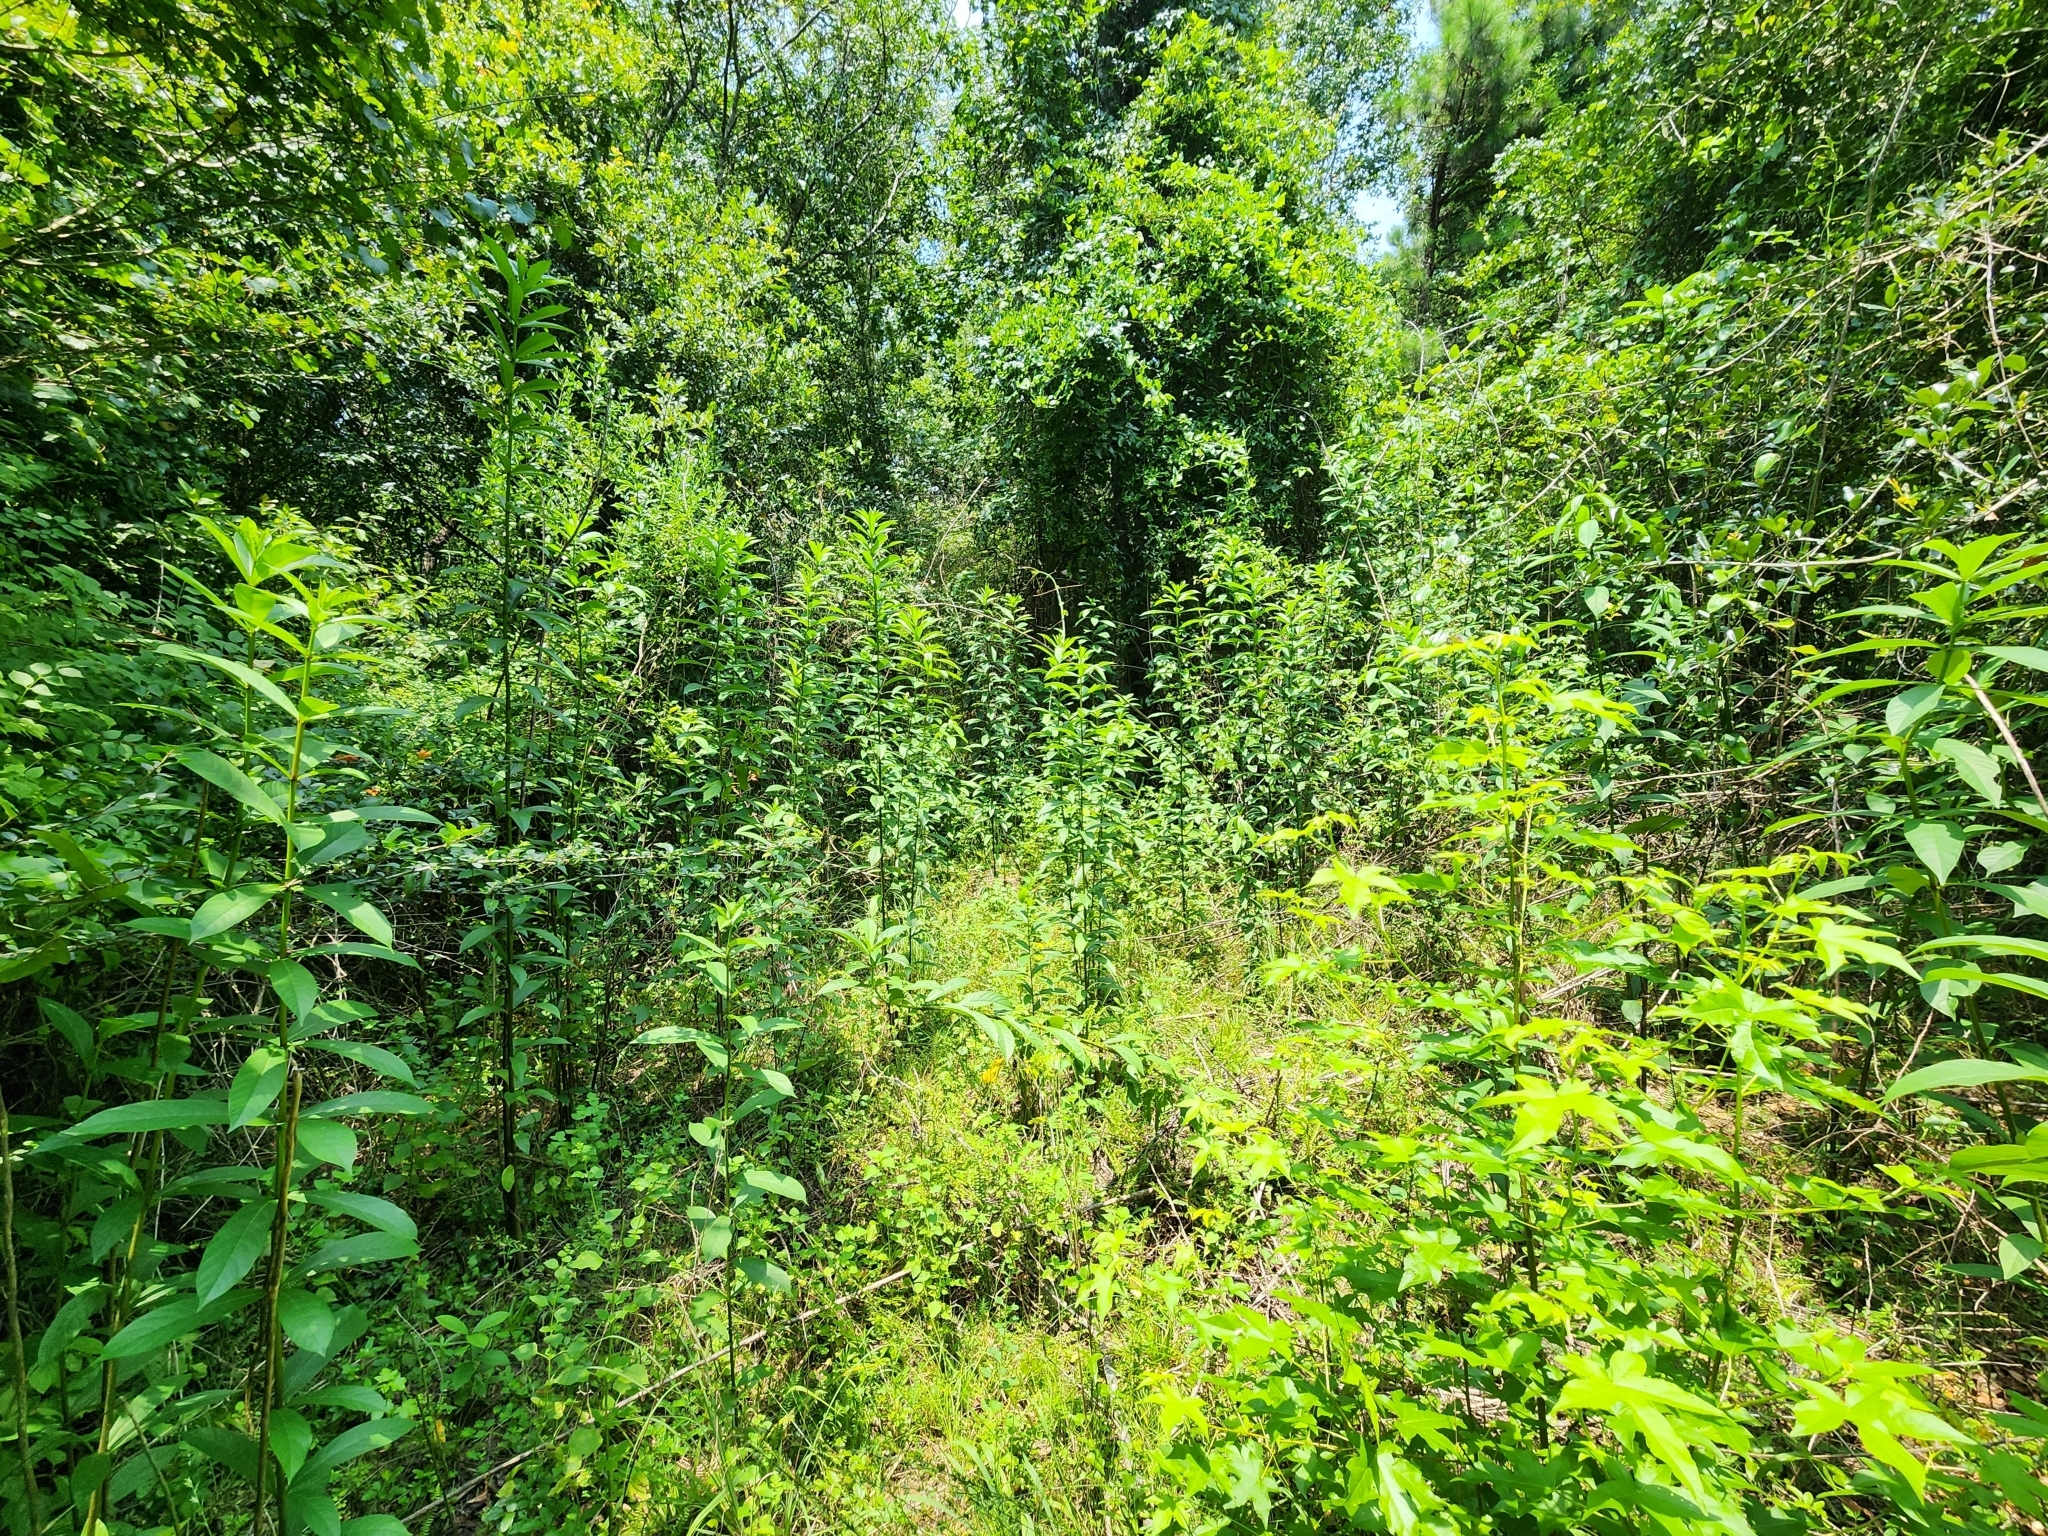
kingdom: Plantae
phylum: Tracheophyta
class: Magnoliopsida
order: Lamiales
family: Lamiaceae
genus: Clerodendrum
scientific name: Clerodendrum indicum
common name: Turk's turbin
